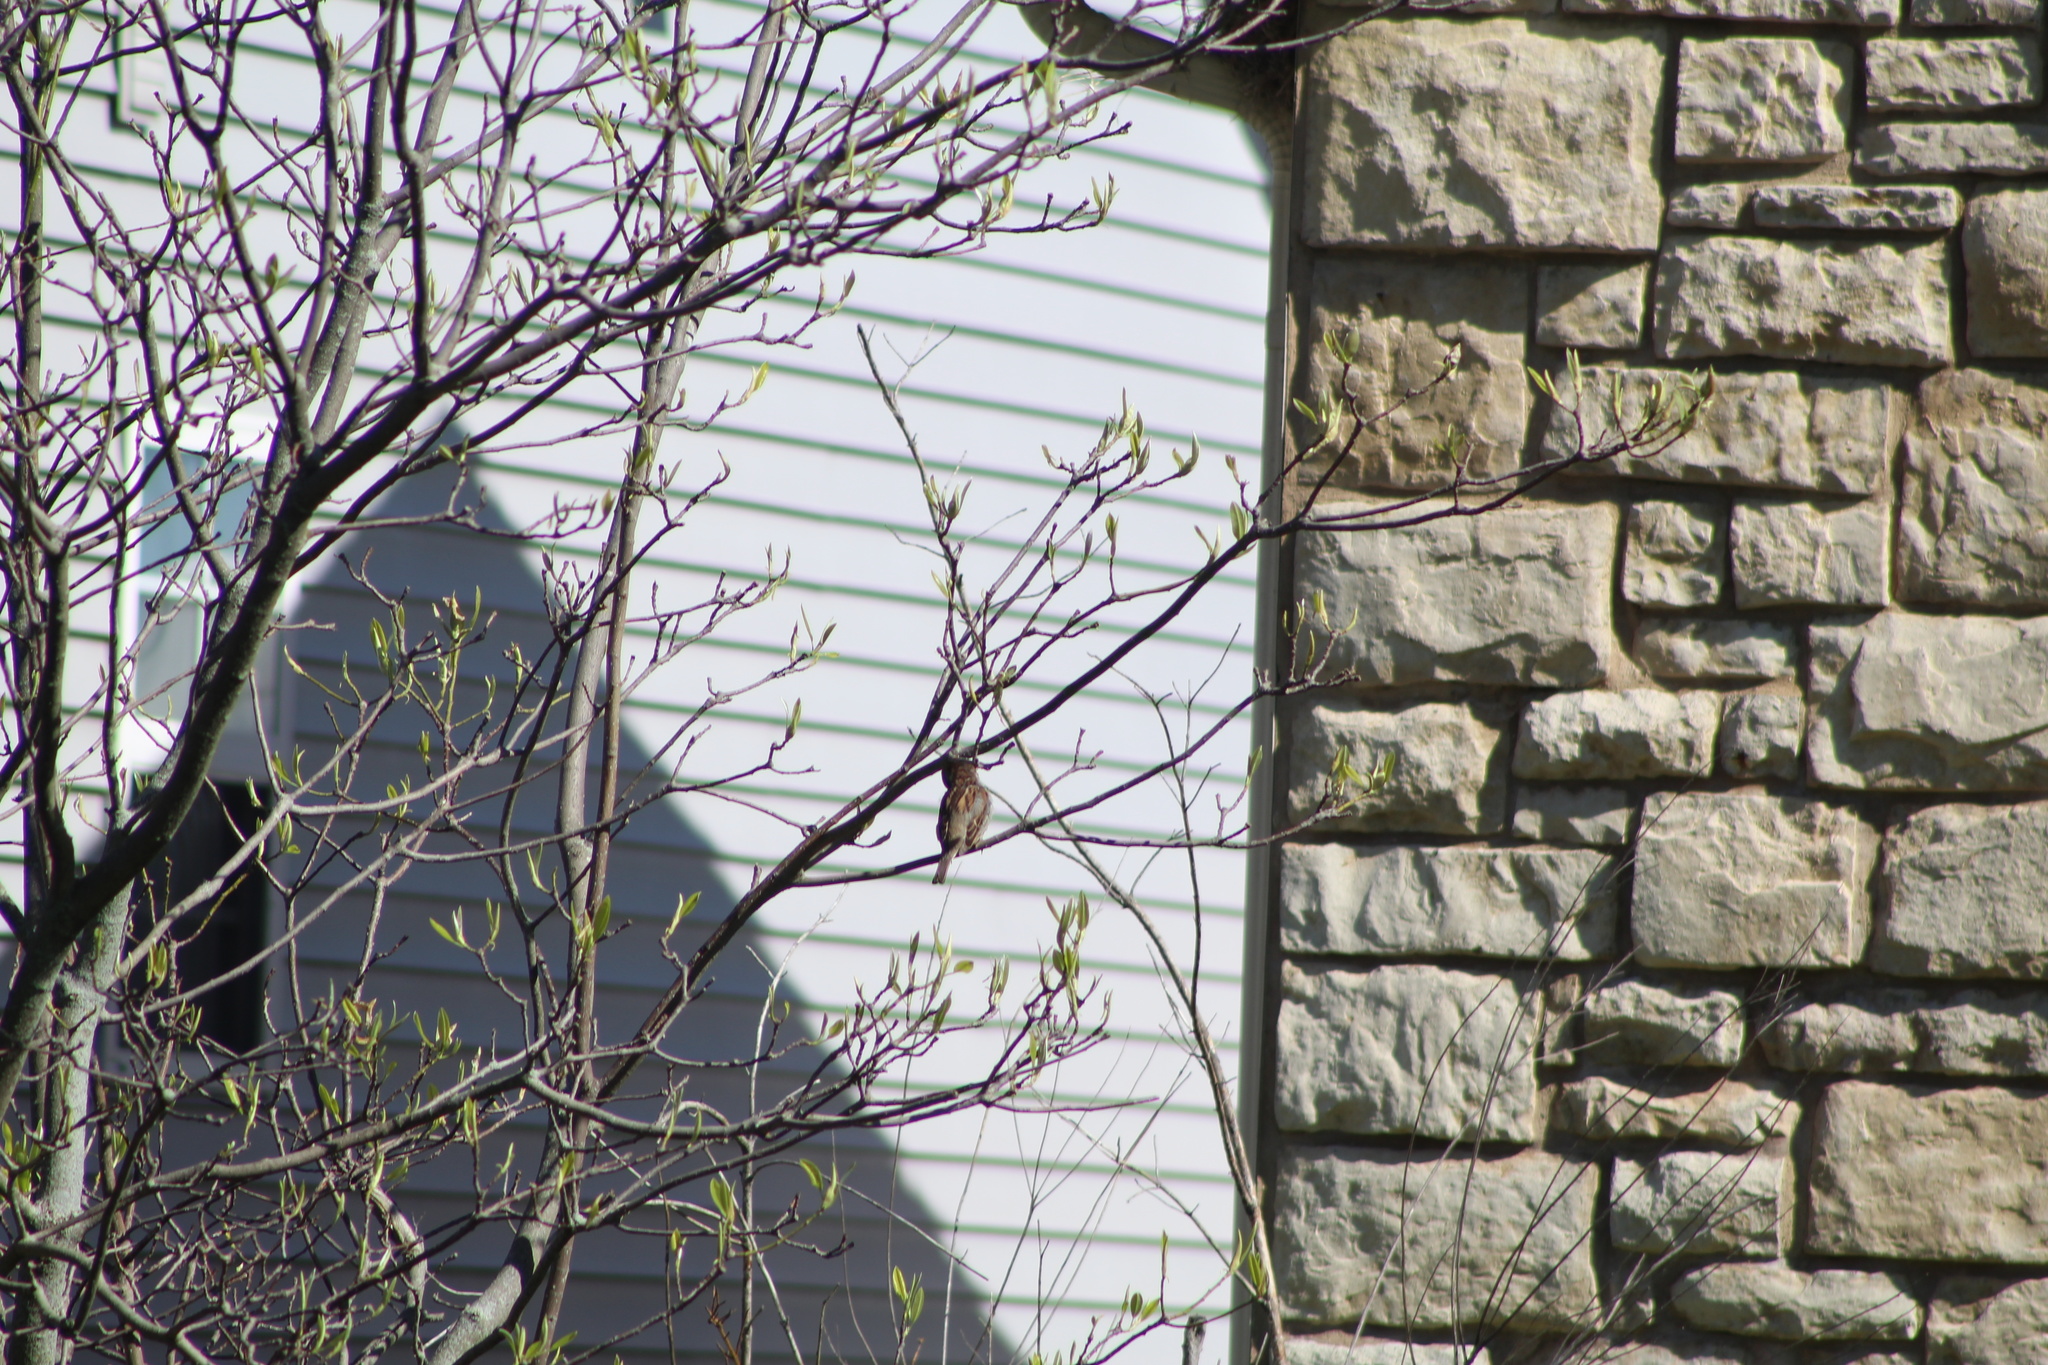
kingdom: Animalia
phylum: Chordata
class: Aves
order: Passeriformes
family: Passeridae
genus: Passer
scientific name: Passer domesticus
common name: House sparrow
